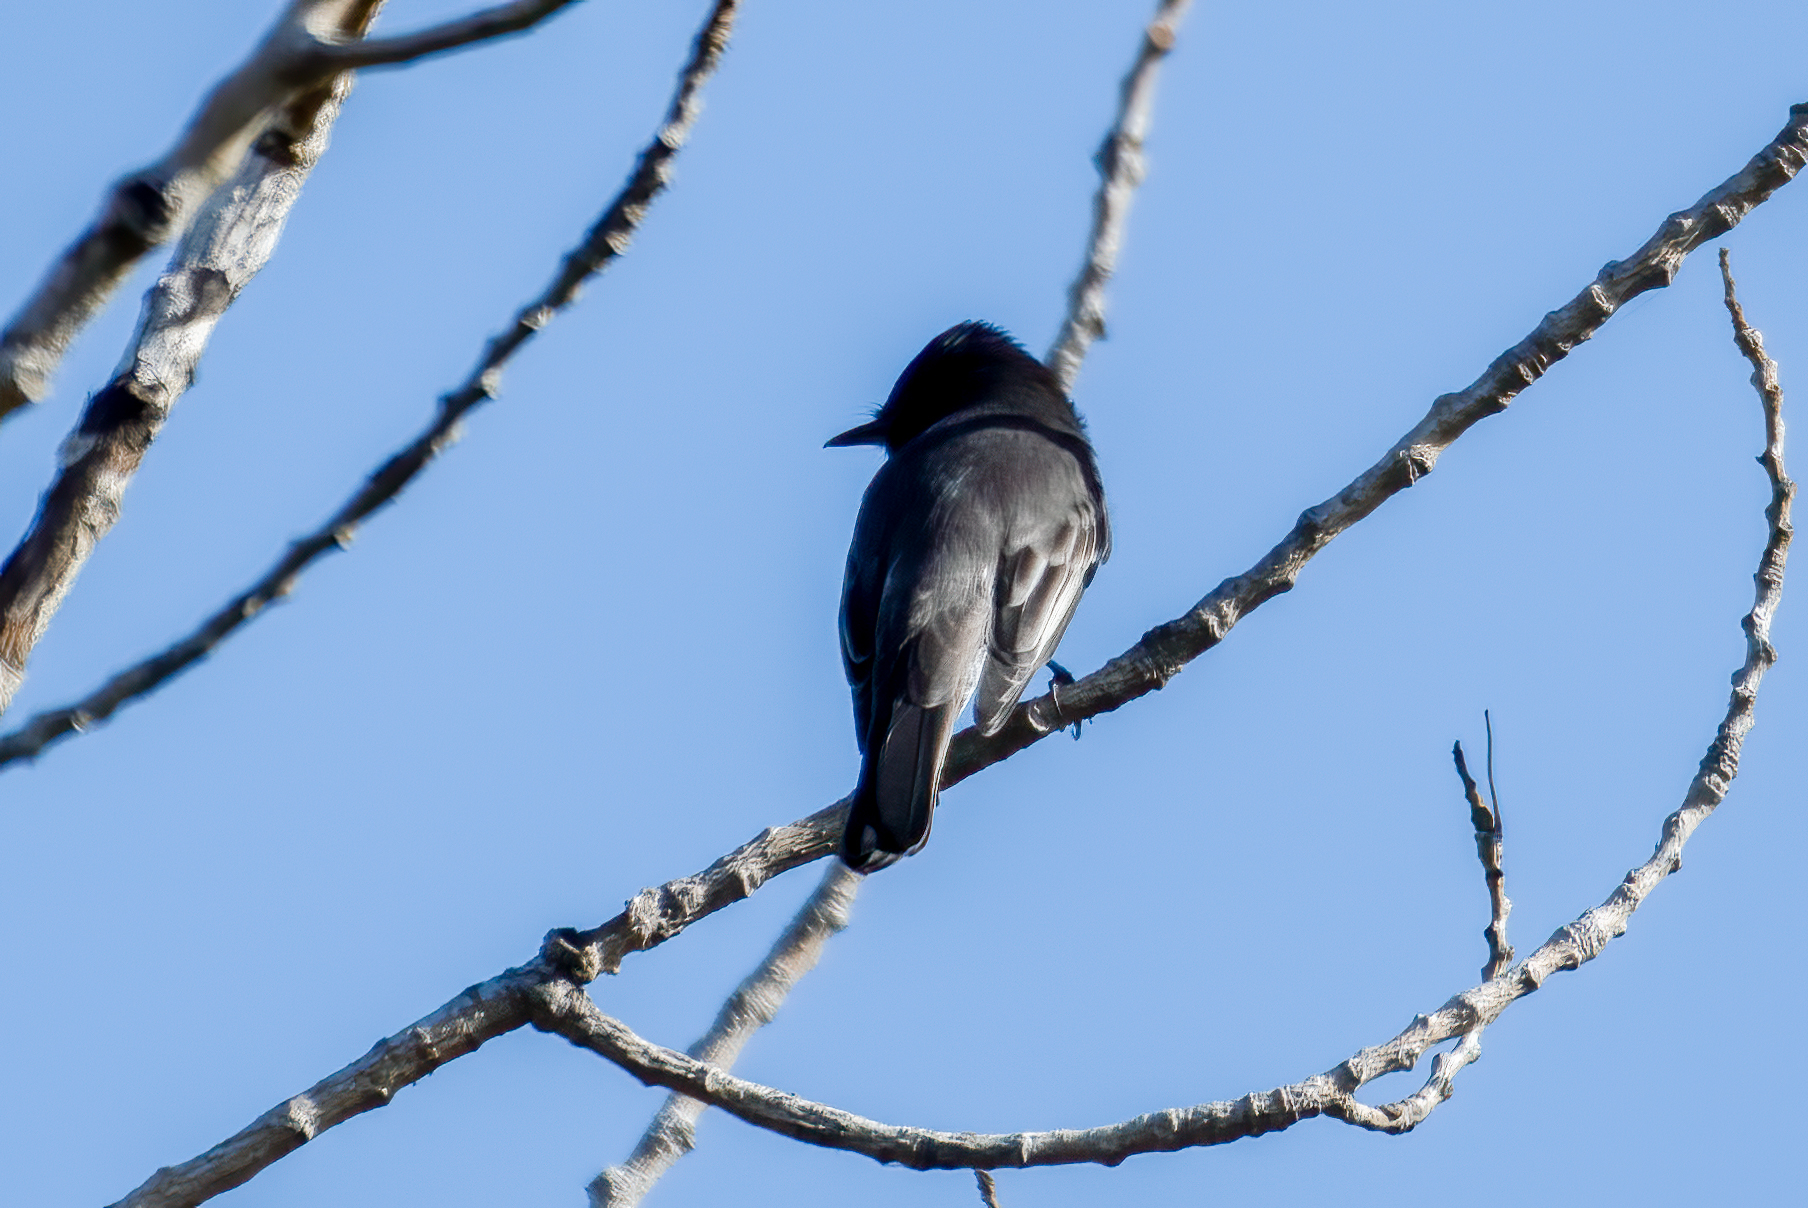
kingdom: Animalia
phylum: Chordata
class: Aves
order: Passeriformes
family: Tyrannidae
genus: Sayornis
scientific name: Sayornis nigricans
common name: Black phoebe
